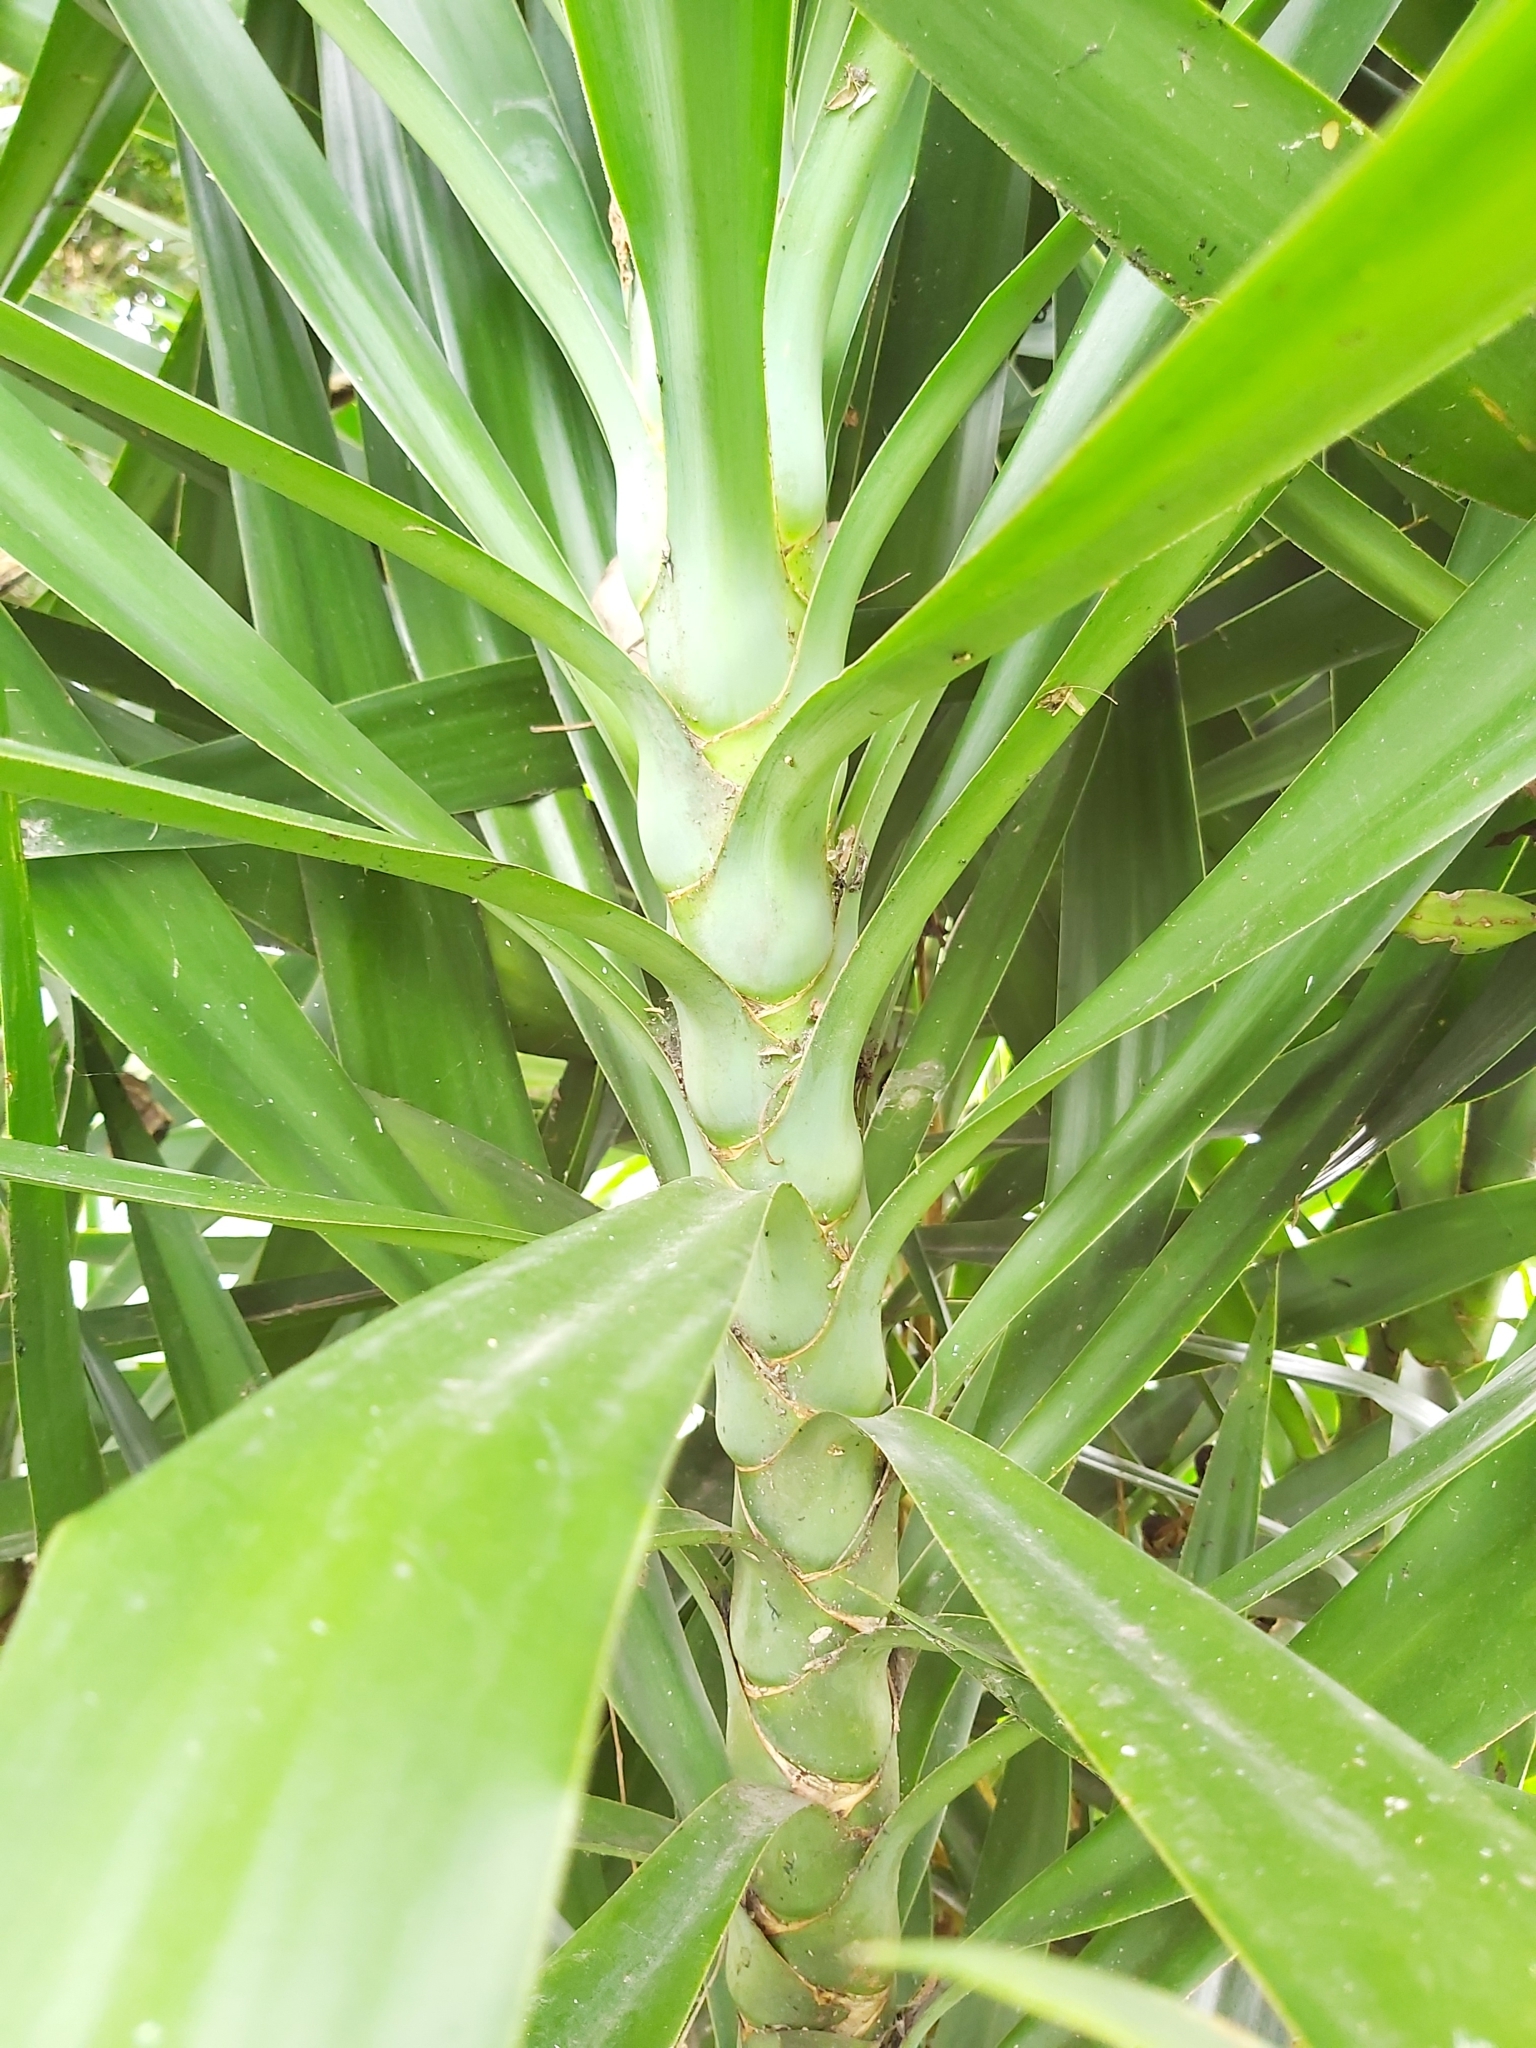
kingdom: Plantae
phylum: Tracheophyta
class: Liliopsida
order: Asparagales
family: Asparagaceae
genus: Yucca
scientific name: Yucca gigantea
